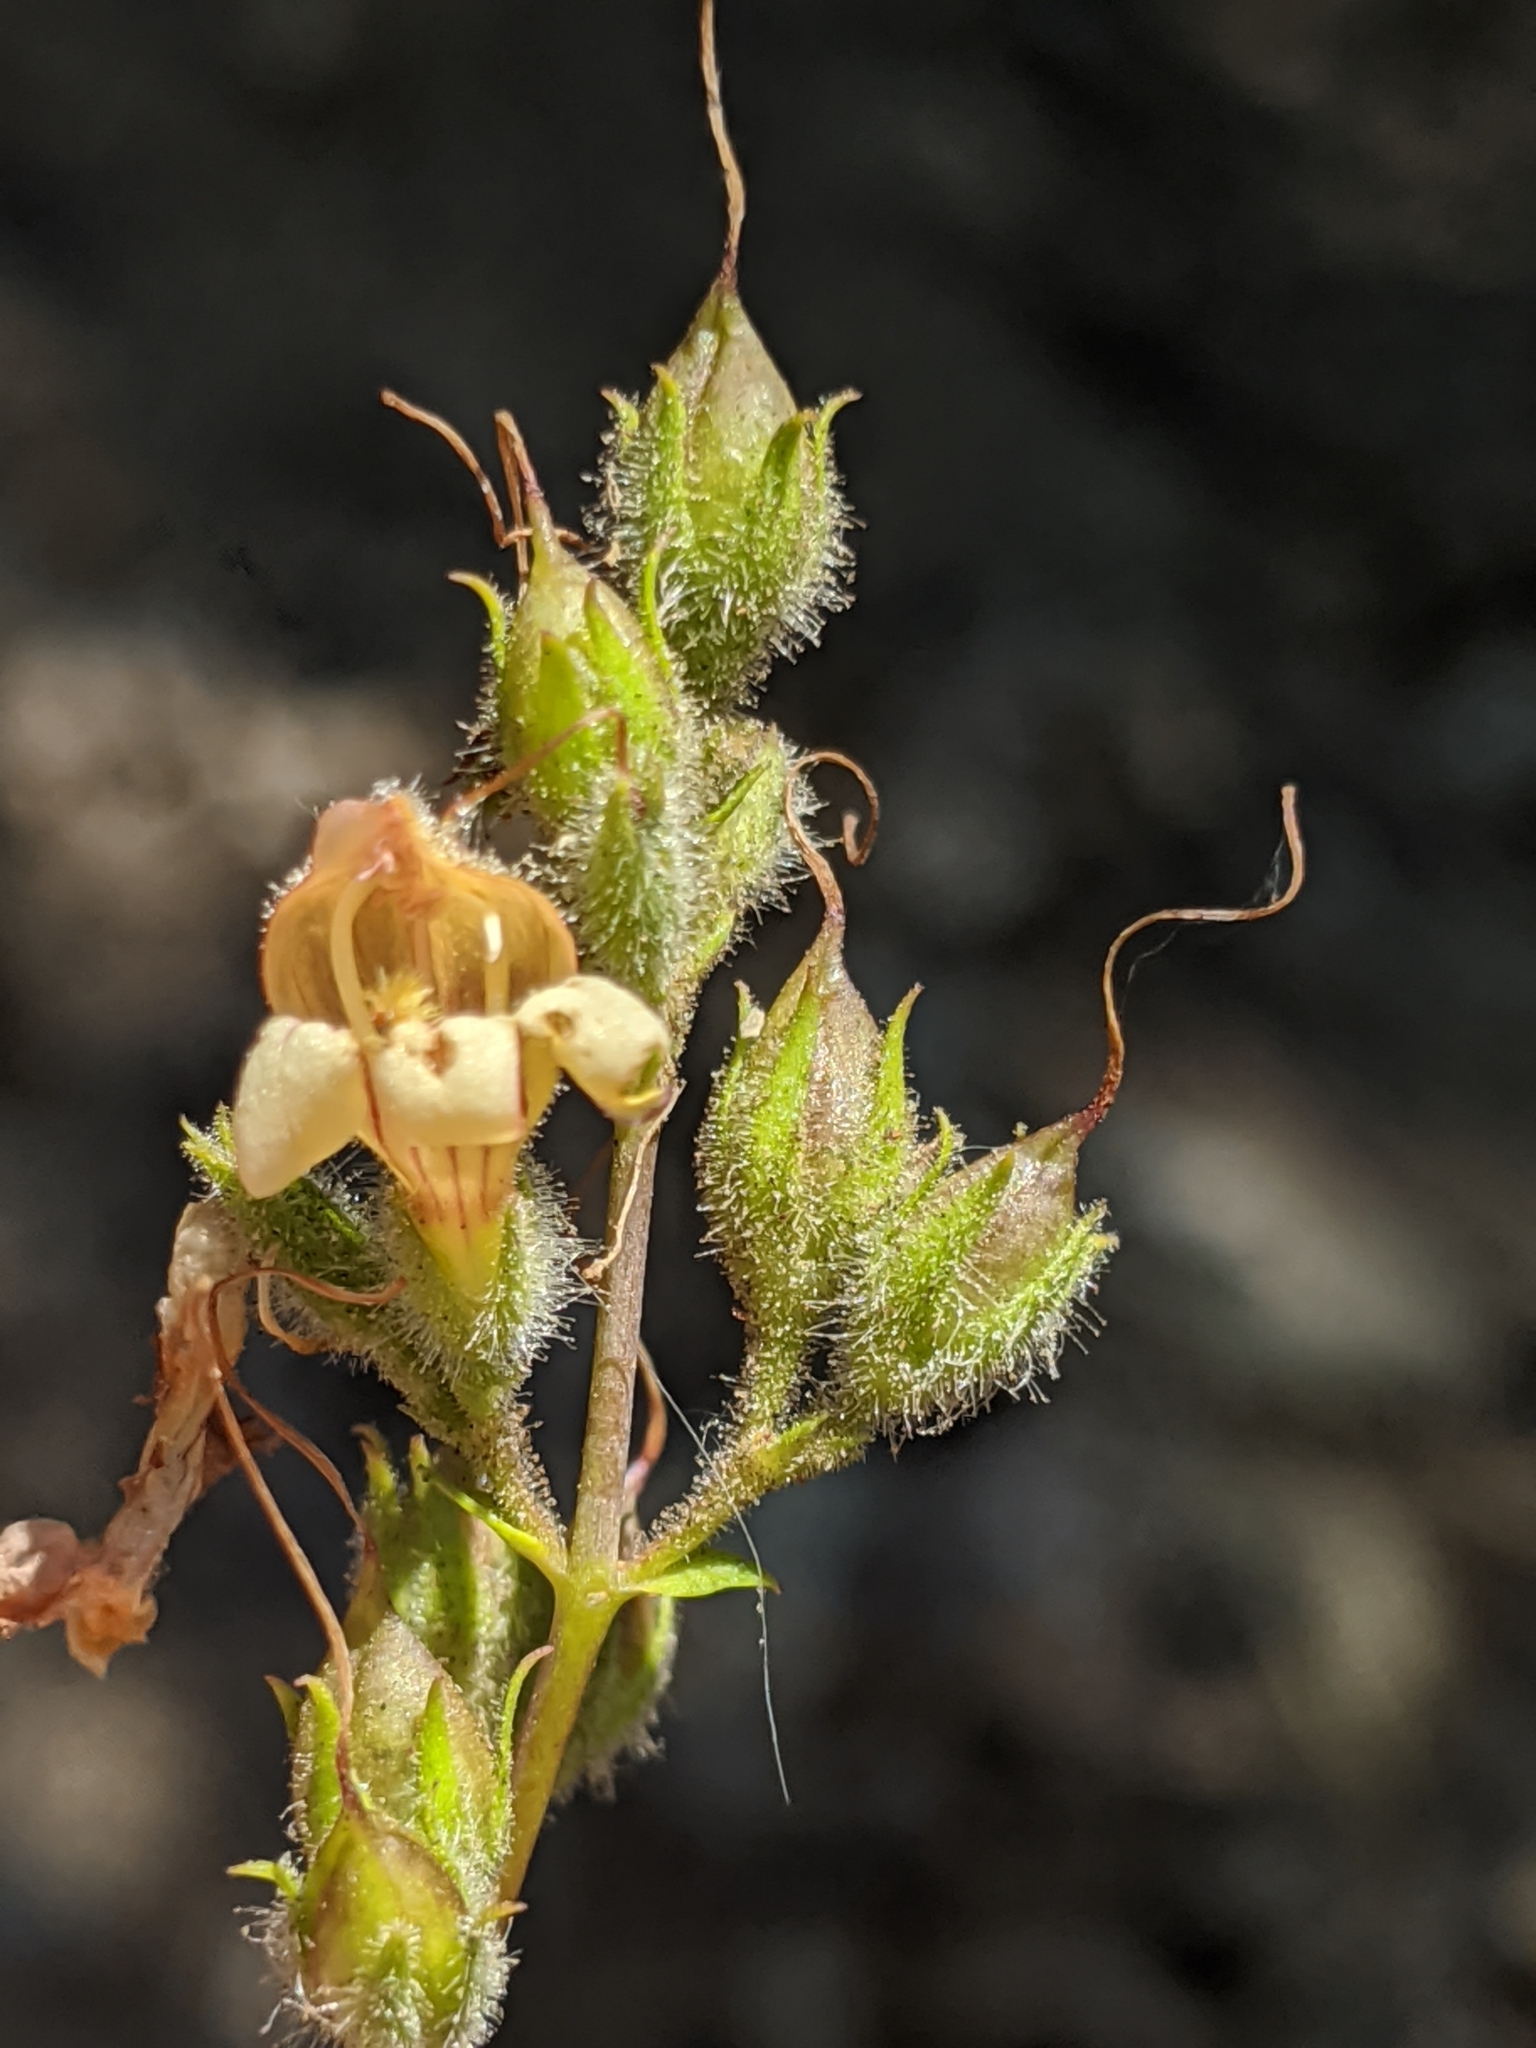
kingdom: Plantae
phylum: Tracheophyta
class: Magnoliopsida
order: Lamiales
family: Plantaginaceae
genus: Keckiella
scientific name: Keckiella lemmonii
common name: Lemmon's keckiella
